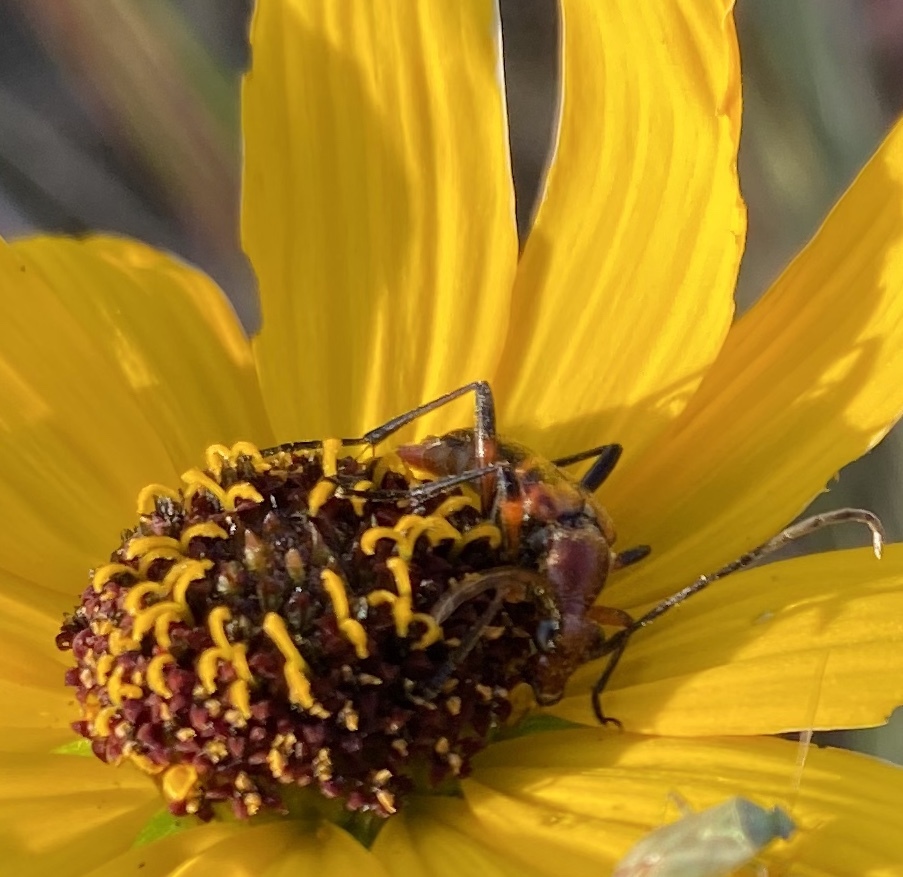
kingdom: Animalia
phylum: Arthropoda
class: Insecta
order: Coleoptera
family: Cerambycidae
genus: Strangalia
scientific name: Strangalia sexnotata
